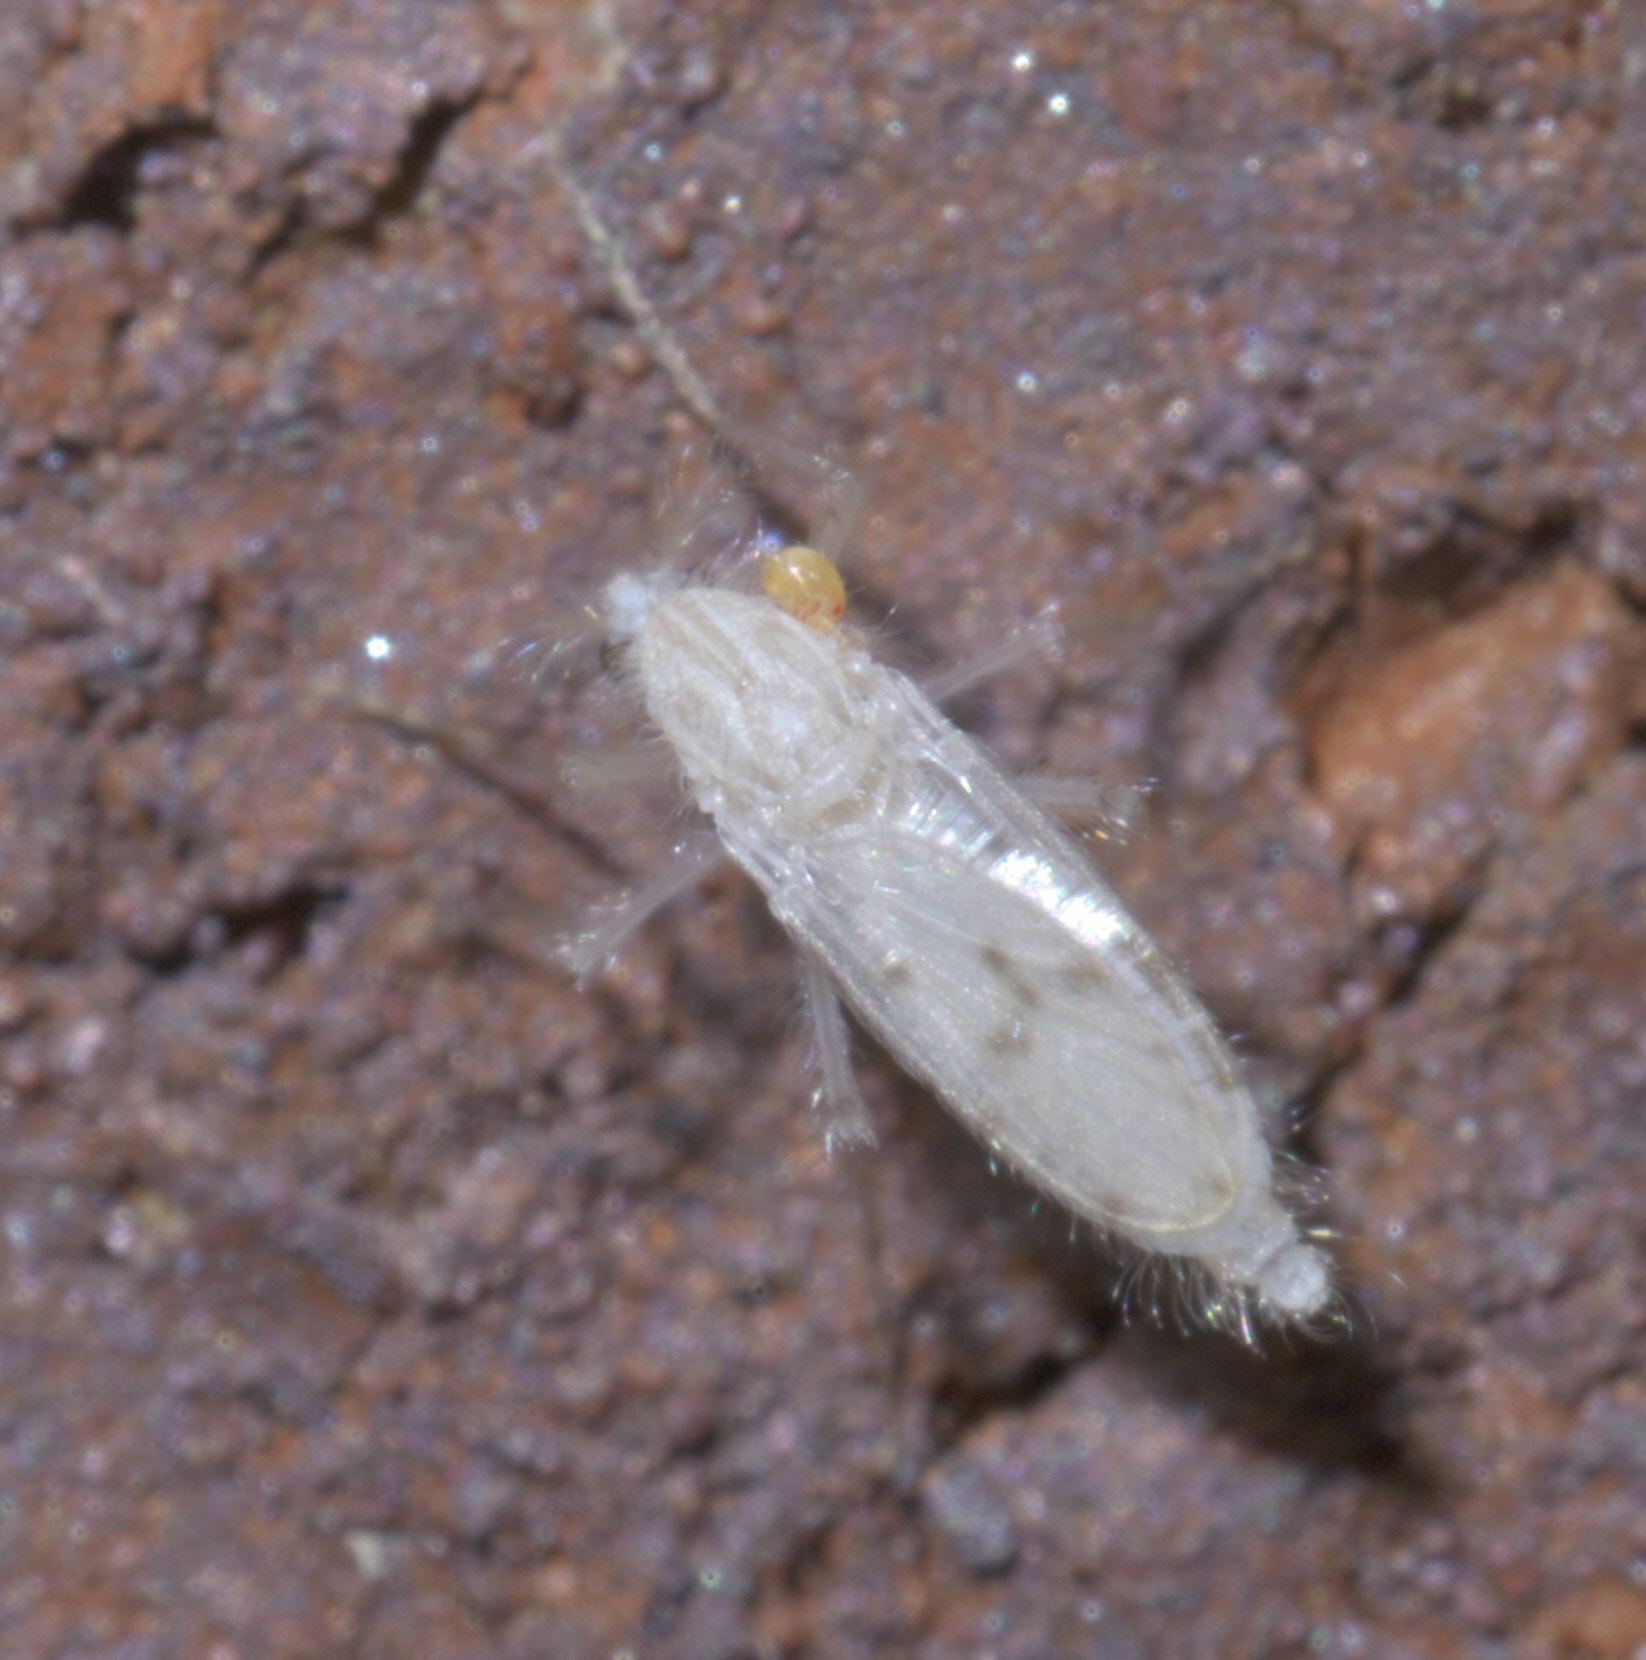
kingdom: Animalia
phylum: Arthropoda
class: Insecta
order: Diptera
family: Chaoboridae
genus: Chaoborus
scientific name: Chaoborus albatus
